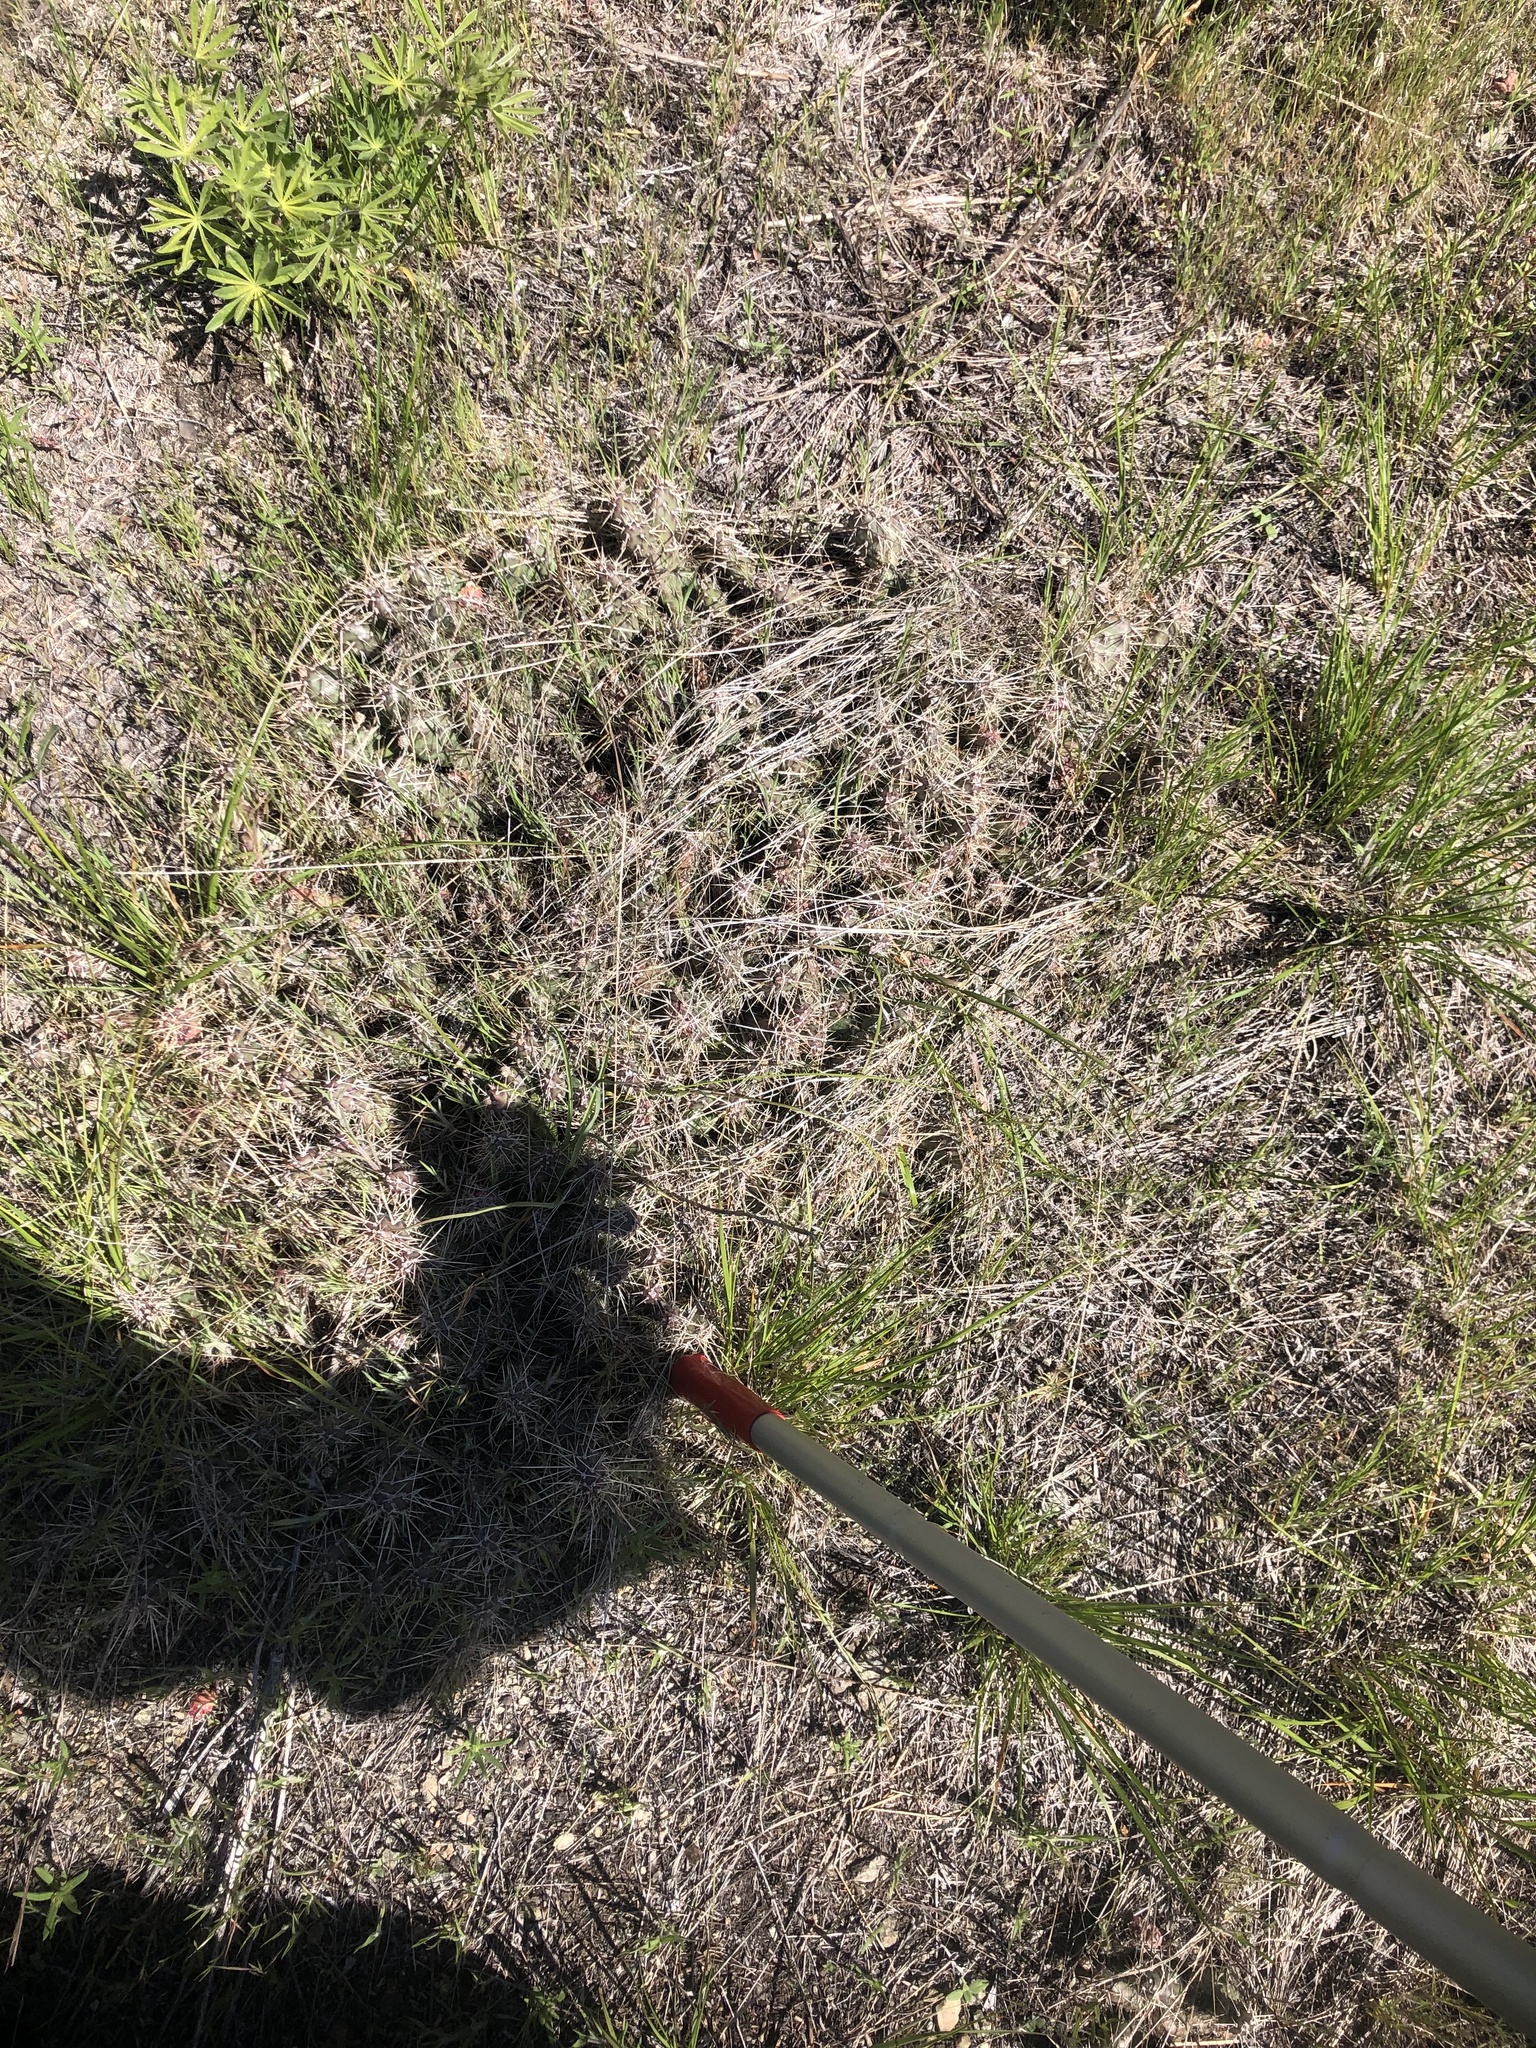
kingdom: Plantae
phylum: Tracheophyta
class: Magnoliopsida
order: Caryophyllales
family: Cactaceae
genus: Opuntia
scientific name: Opuntia fragilis
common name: Brittle cactus
